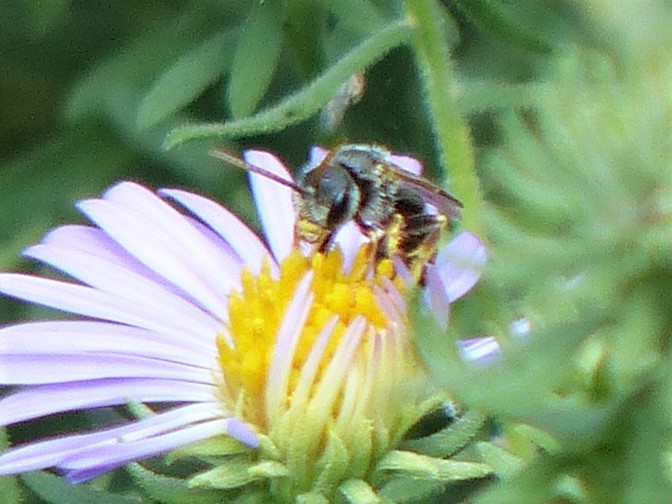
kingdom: Animalia
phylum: Arthropoda
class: Insecta
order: Hymenoptera
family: Halictidae
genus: Halictus
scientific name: Halictus ligatus
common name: Ligated furrow bee
